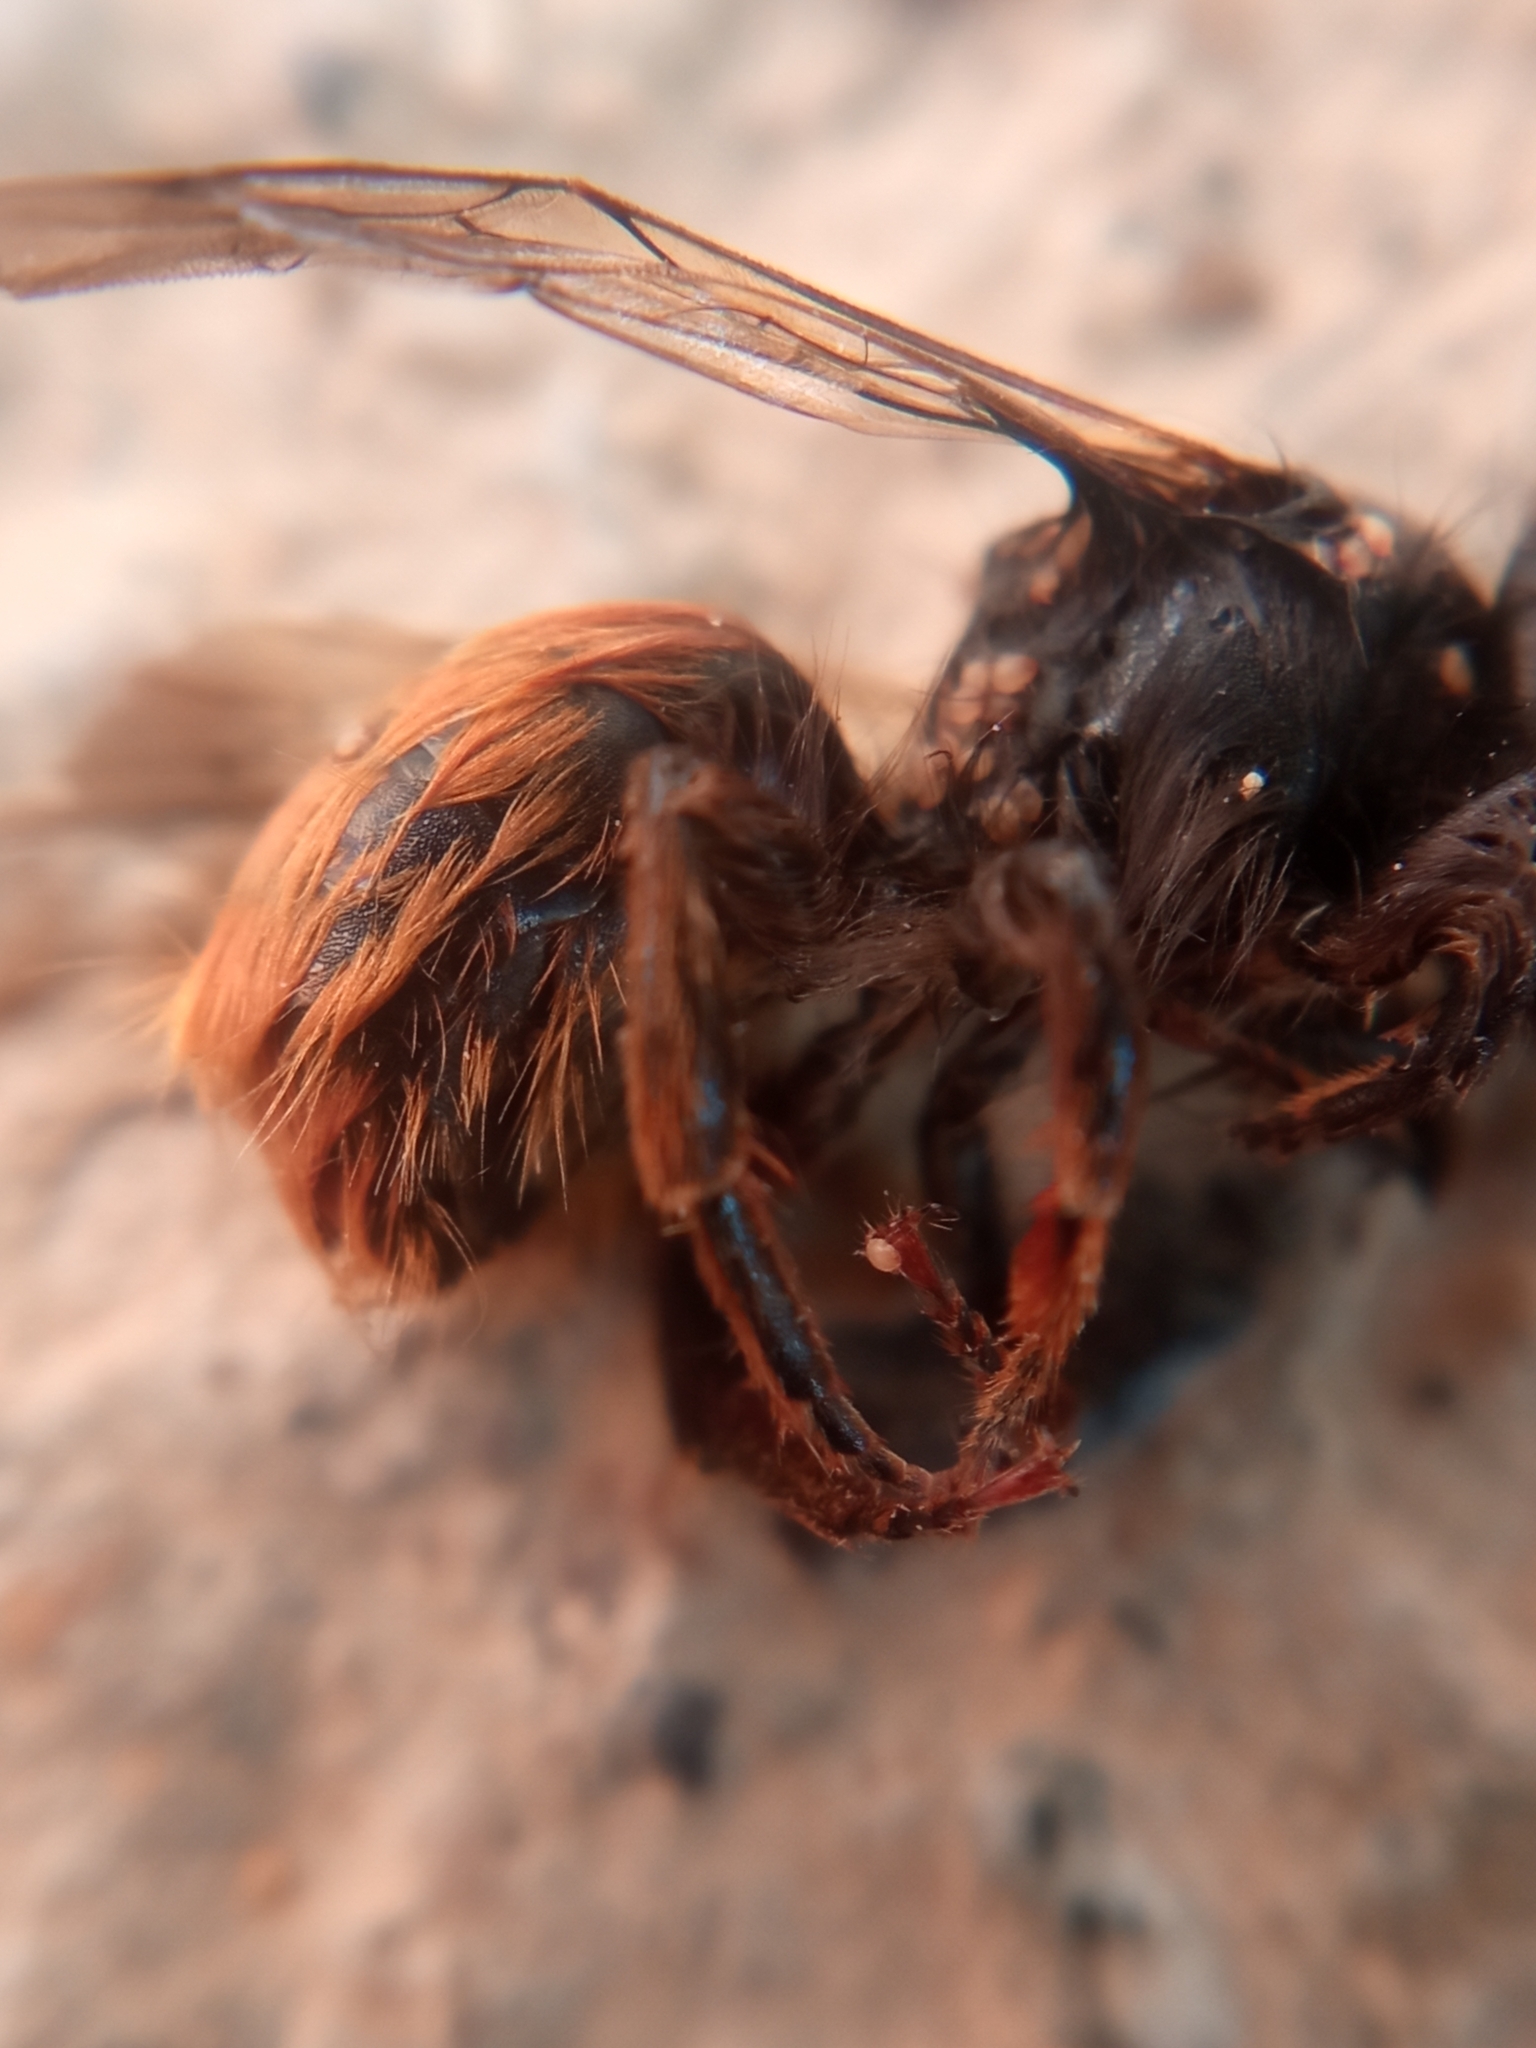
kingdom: Animalia
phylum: Arthropoda
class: Insecta
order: Hymenoptera
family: Megachilidae
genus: Osmia
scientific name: Osmia cornuta
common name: Mason bee
